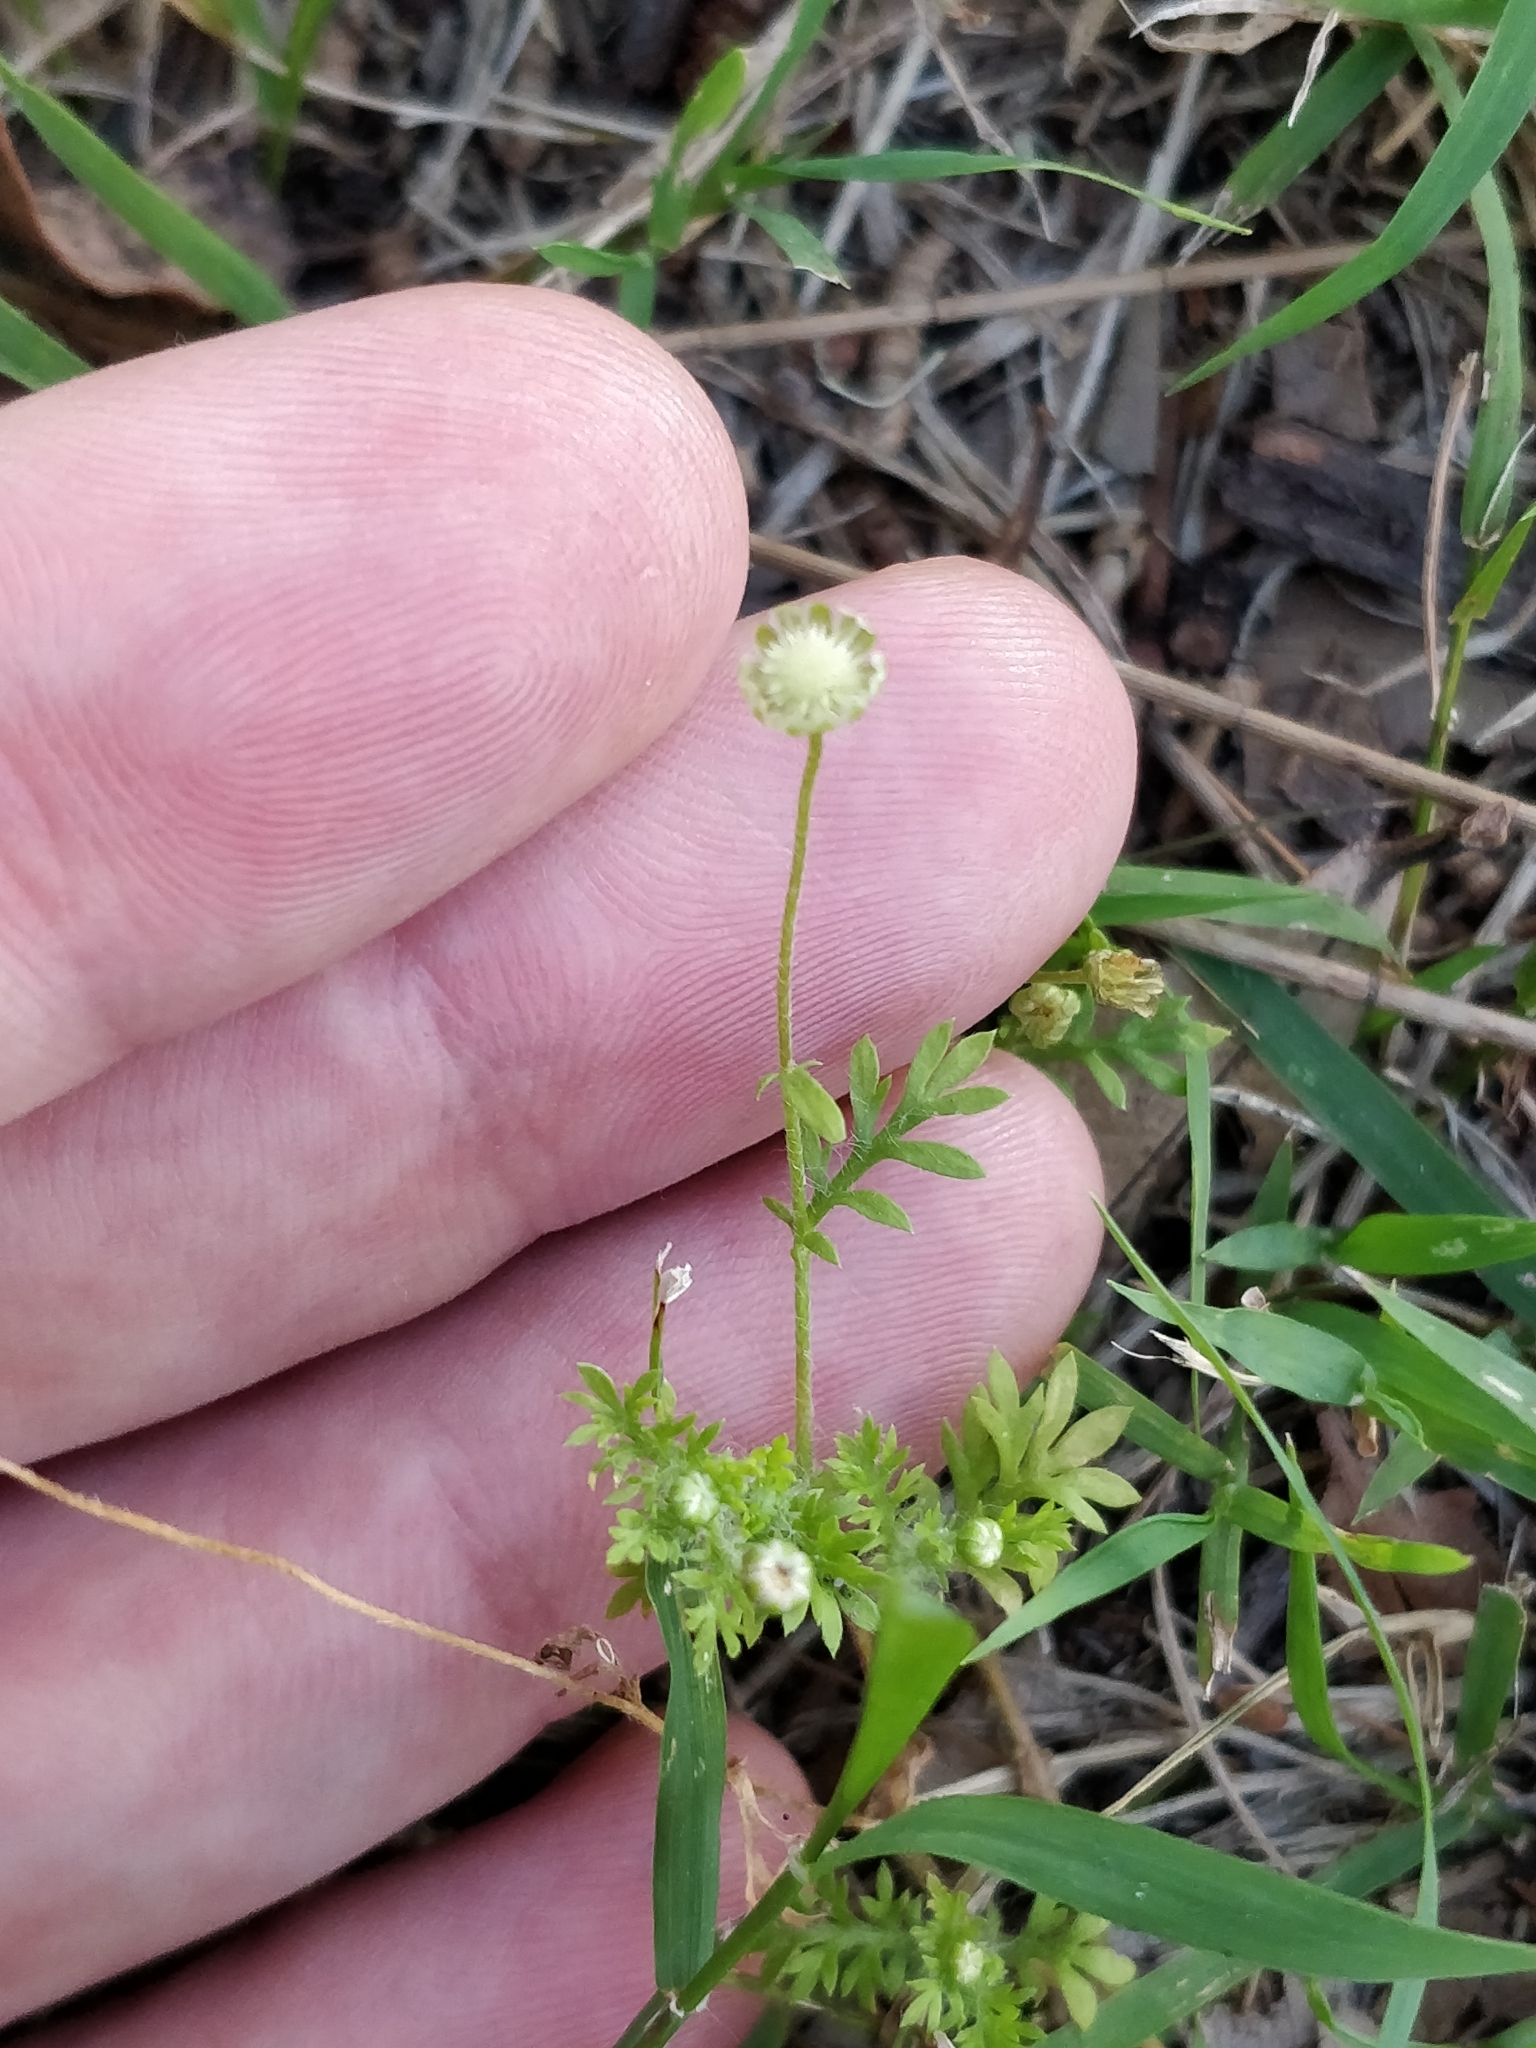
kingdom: Plantae
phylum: Tracheophyta
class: Magnoliopsida
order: Asterales
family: Asteraceae
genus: Cotula
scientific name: Cotula australis
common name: Australian waterbuttons
